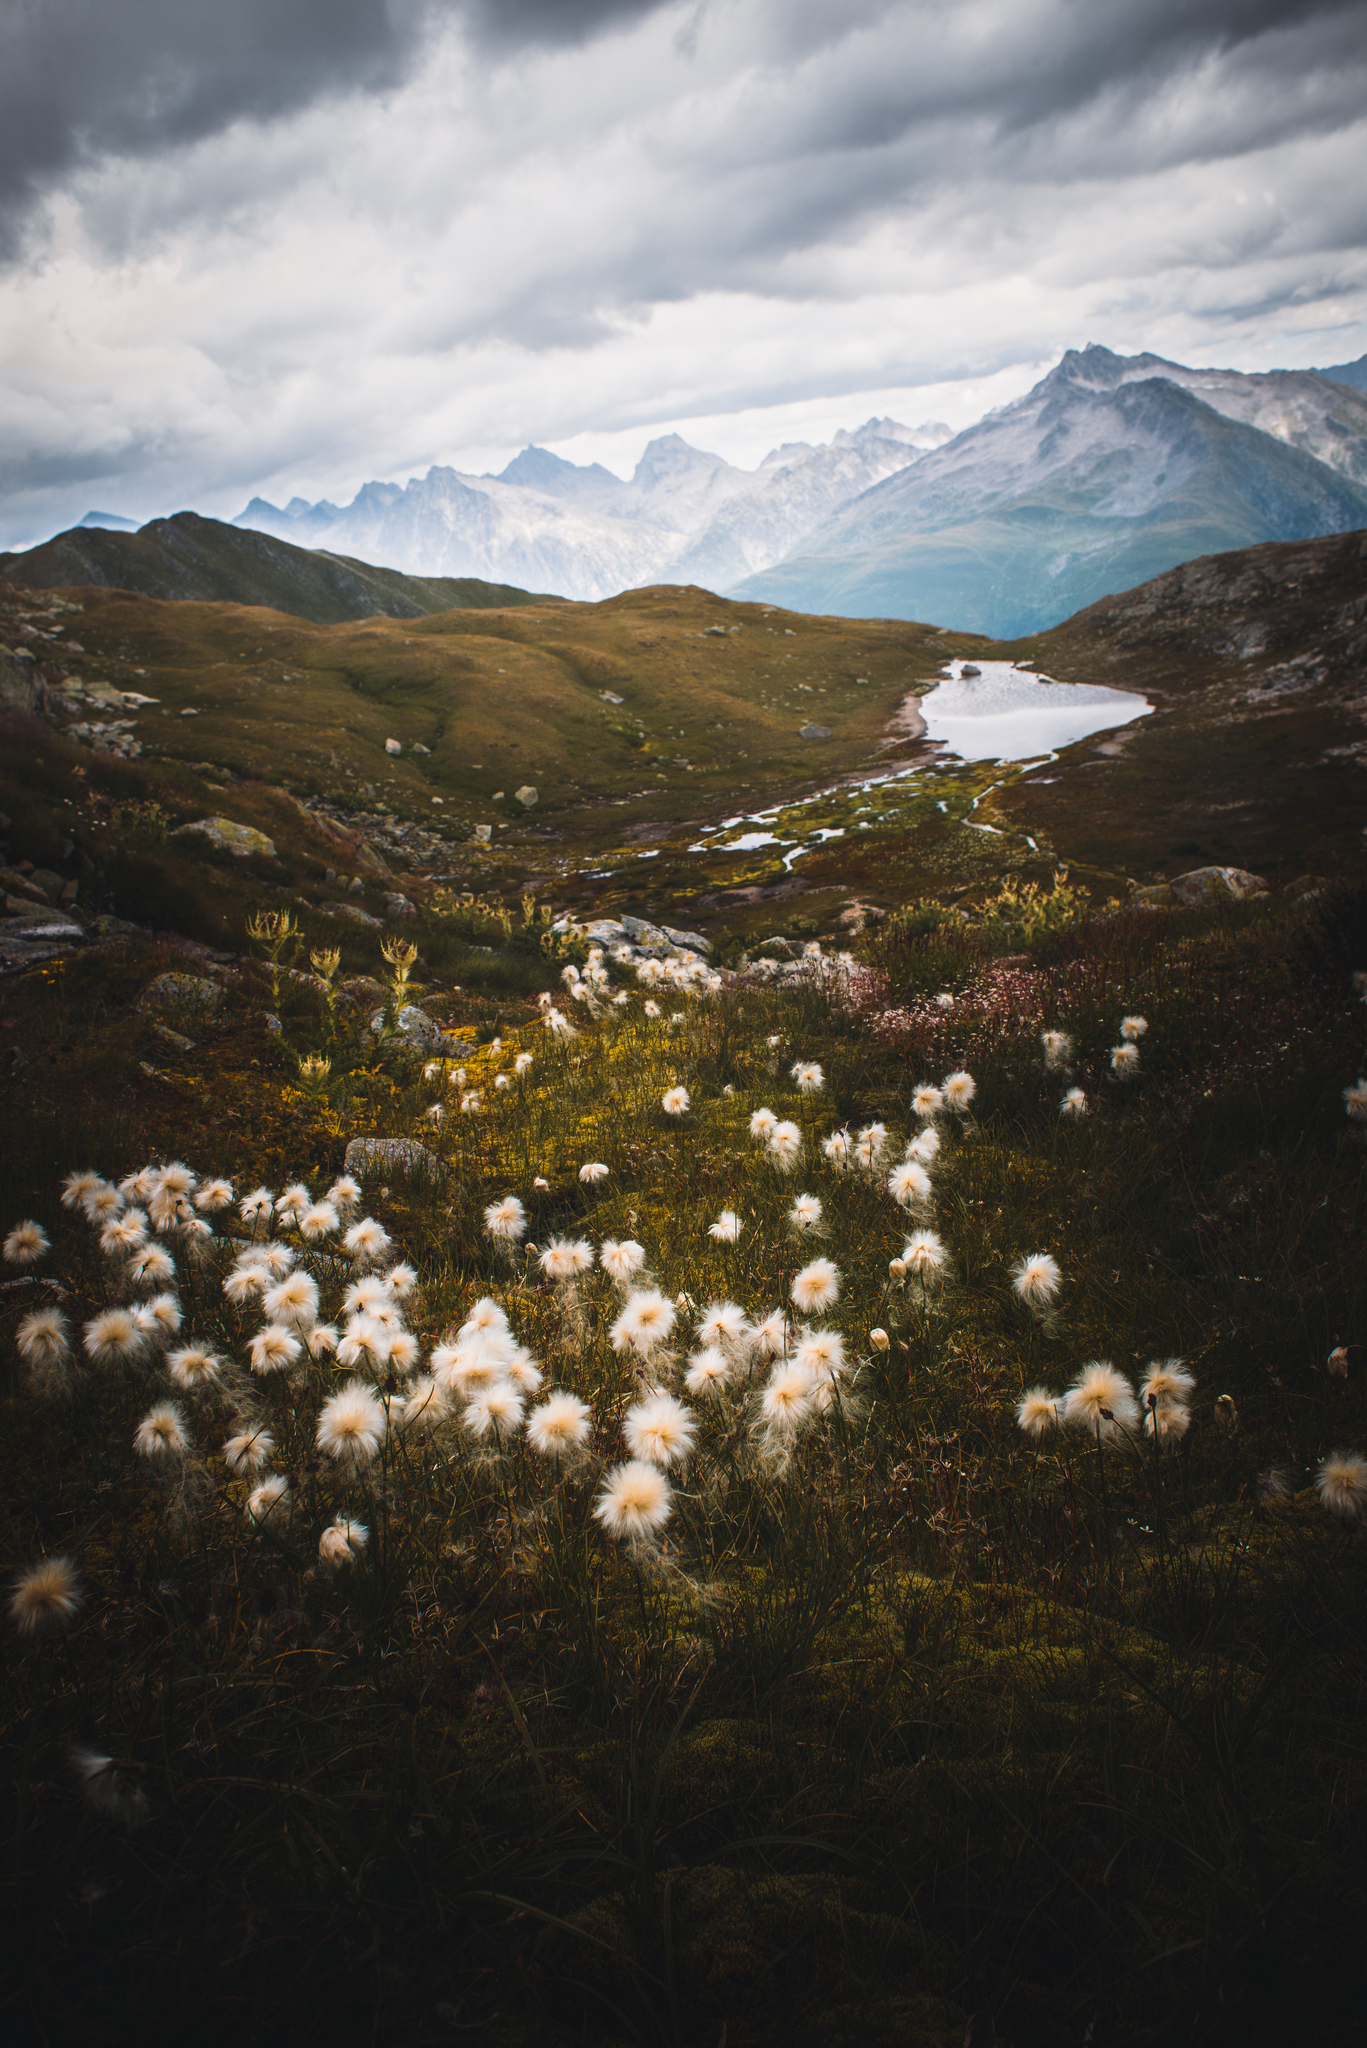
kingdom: Plantae
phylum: Tracheophyta
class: Liliopsida
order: Poales
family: Cyperaceae
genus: Eriophorum
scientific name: Eriophorum scheuchzeri
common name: Scheuchzer's cottongrass
